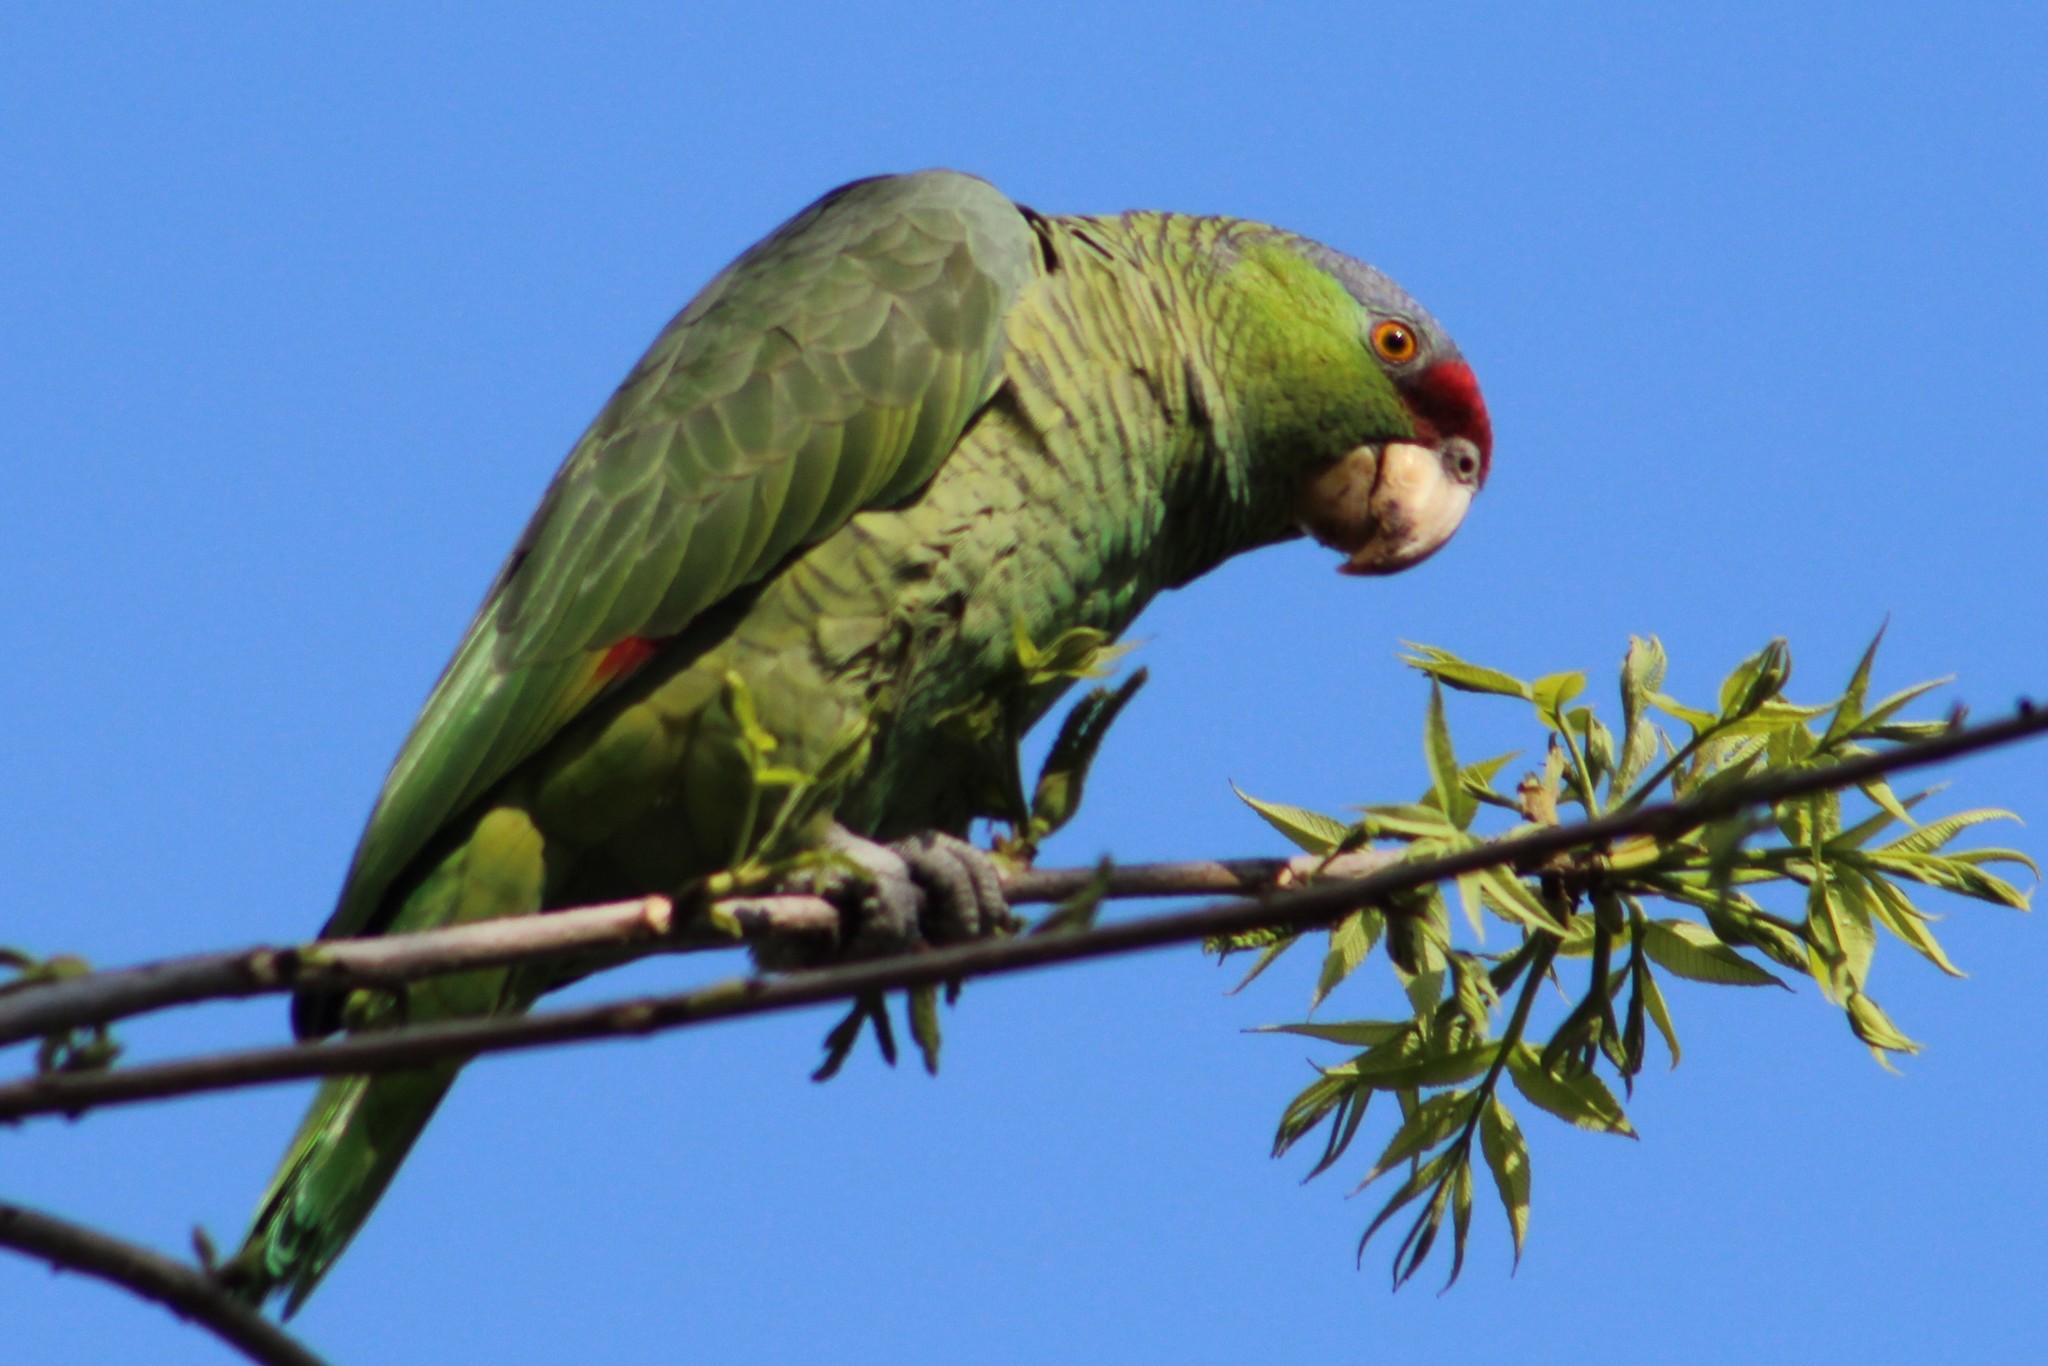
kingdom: Animalia
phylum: Chordata
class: Aves
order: Psittaciformes
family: Psittacidae
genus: Amazona
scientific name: Amazona finschi
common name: Lilac-crowned amazon
